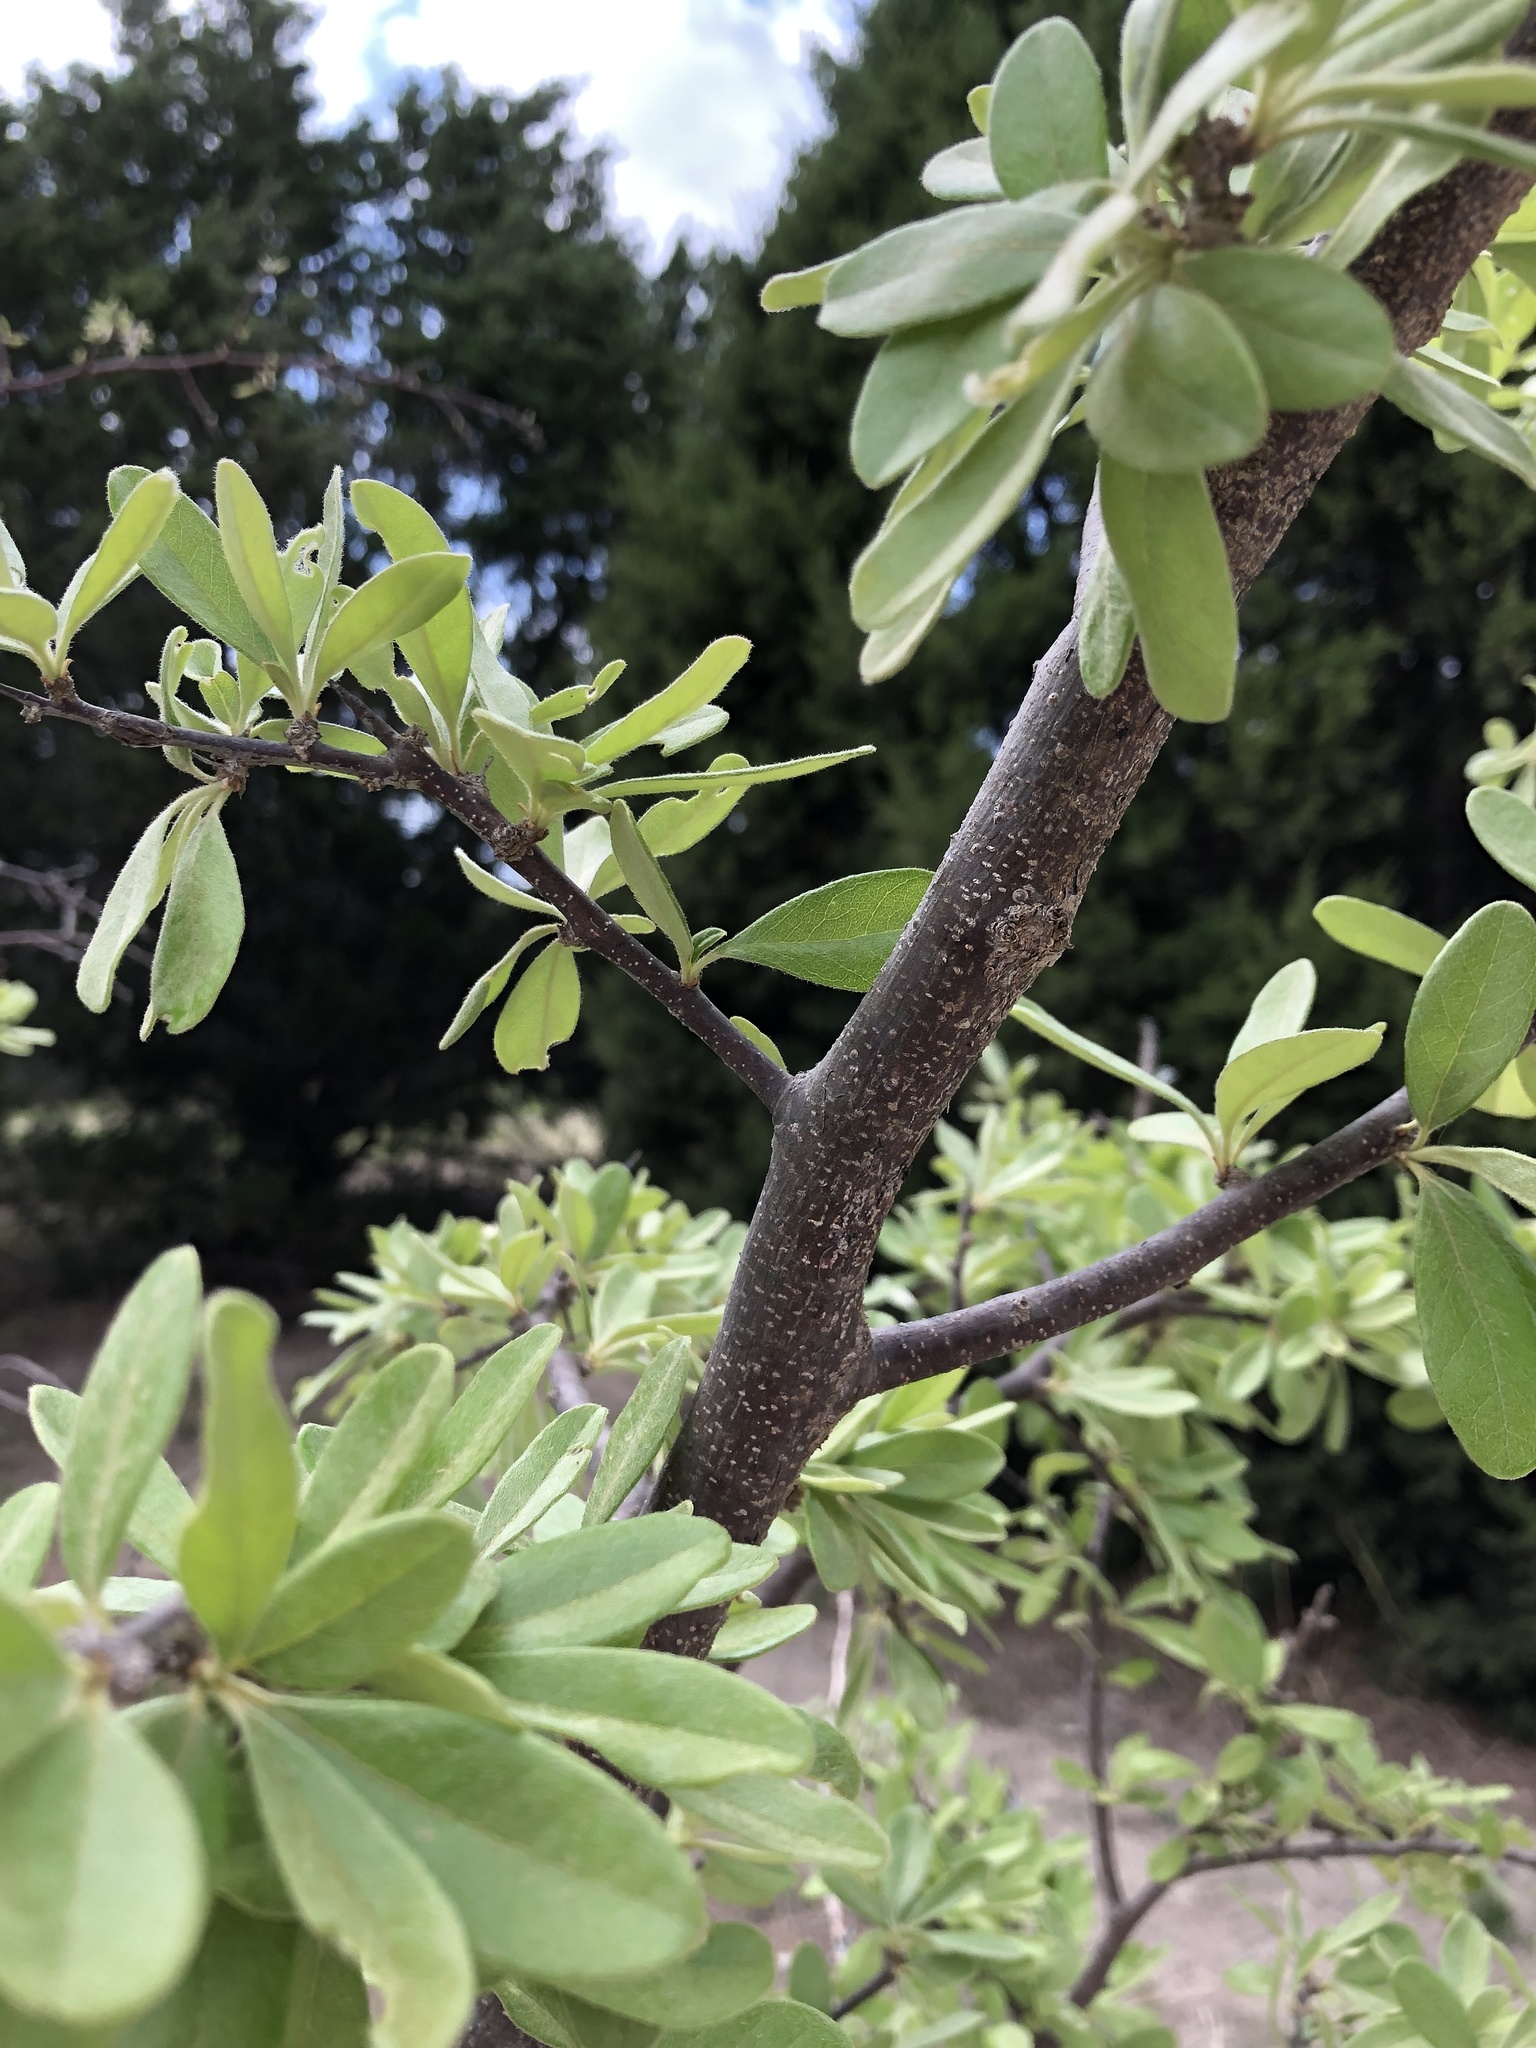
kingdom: Plantae
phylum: Tracheophyta
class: Magnoliopsida
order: Ericales
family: Sapotaceae
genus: Sideroxylon
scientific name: Sideroxylon lanuginosum
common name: Chittamwood
